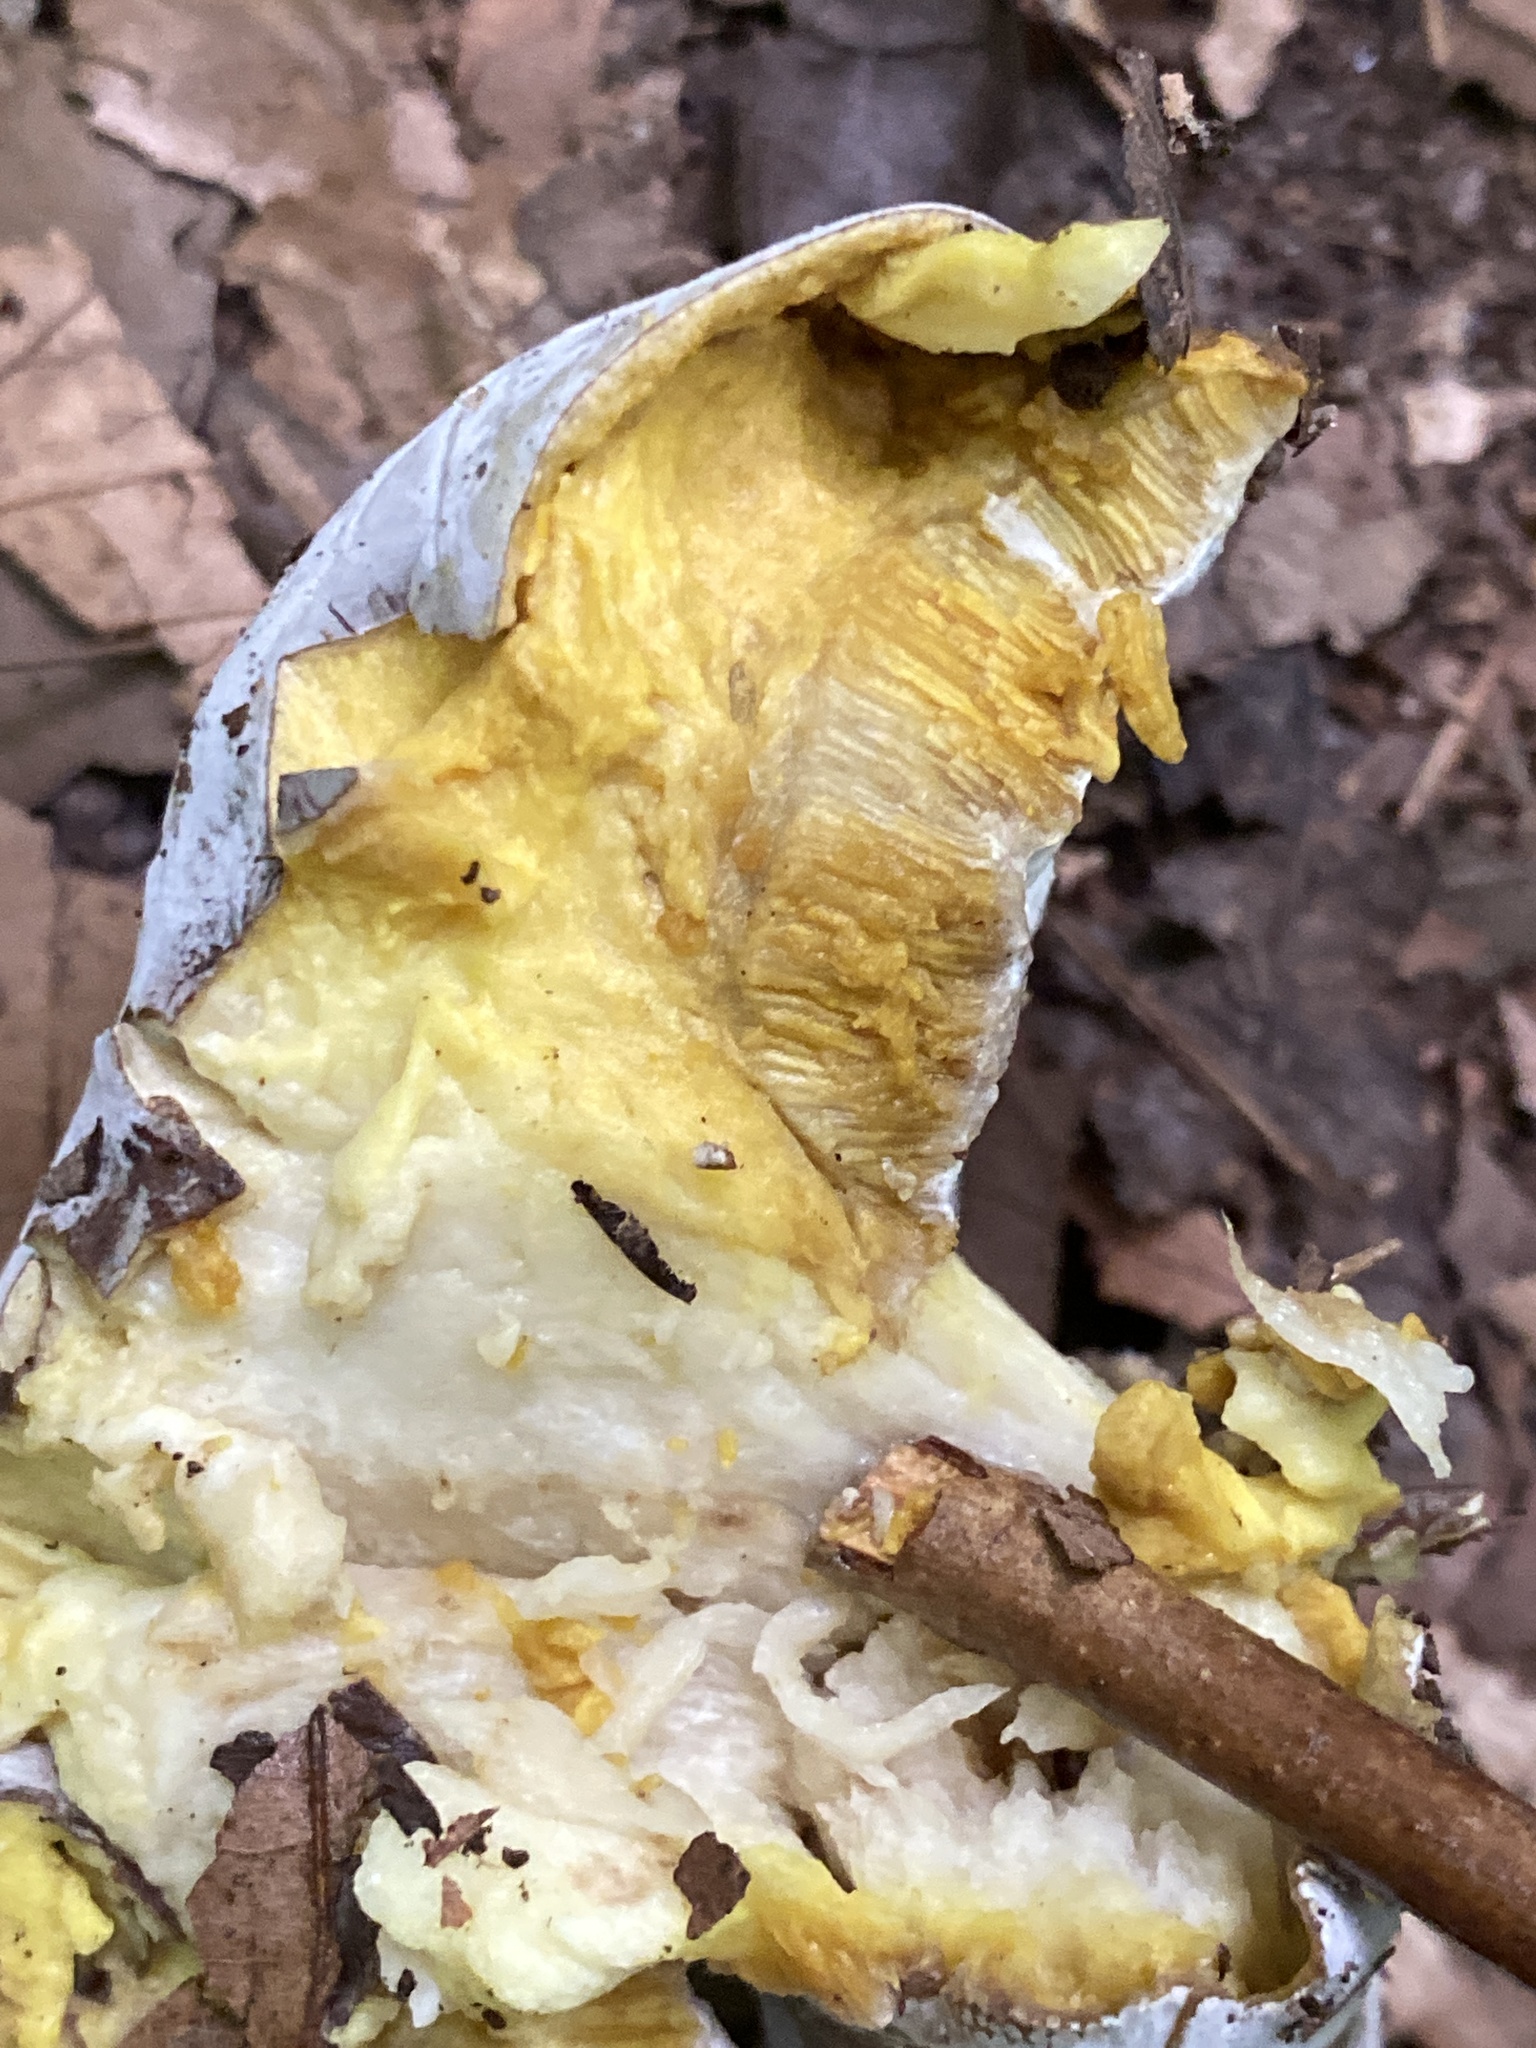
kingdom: Fungi
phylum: Ascomycota
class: Sordariomycetes
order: Hypocreales
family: Hypocreaceae
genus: Hypomyces
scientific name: Hypomyces chrysospermus
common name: Bolete mould
